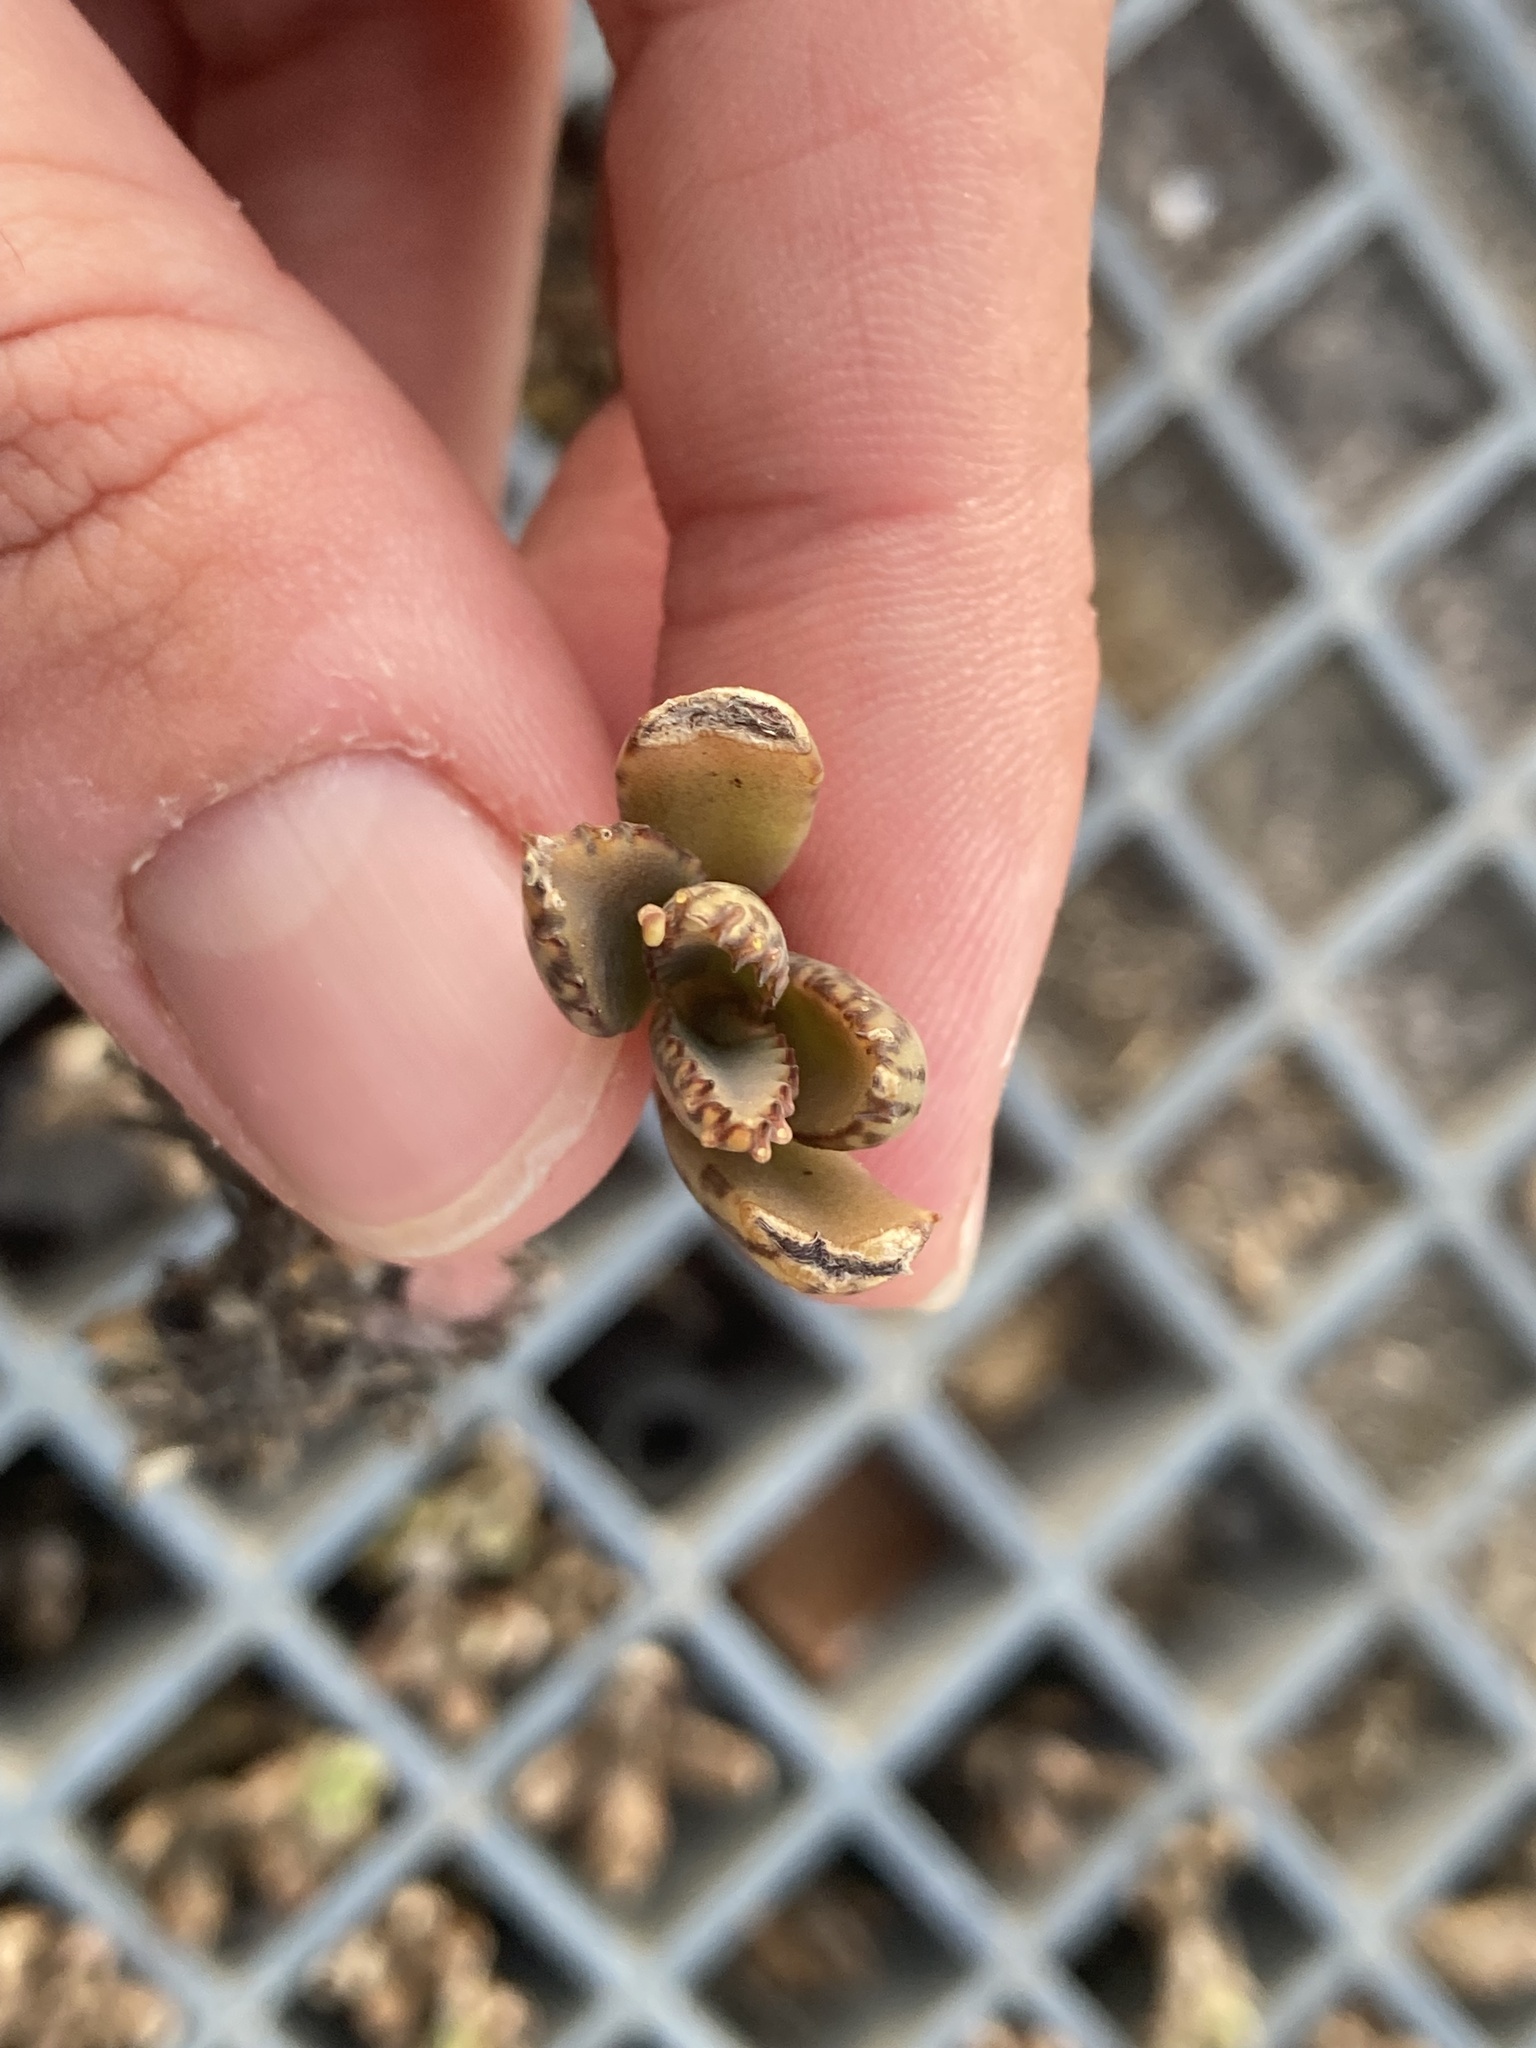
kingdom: Plantae
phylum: Tracheophyta
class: Magnoliopsida
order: Saxifragales
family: Crassulaceae
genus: Kalanchoe
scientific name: Kalanchoe houghtonii
